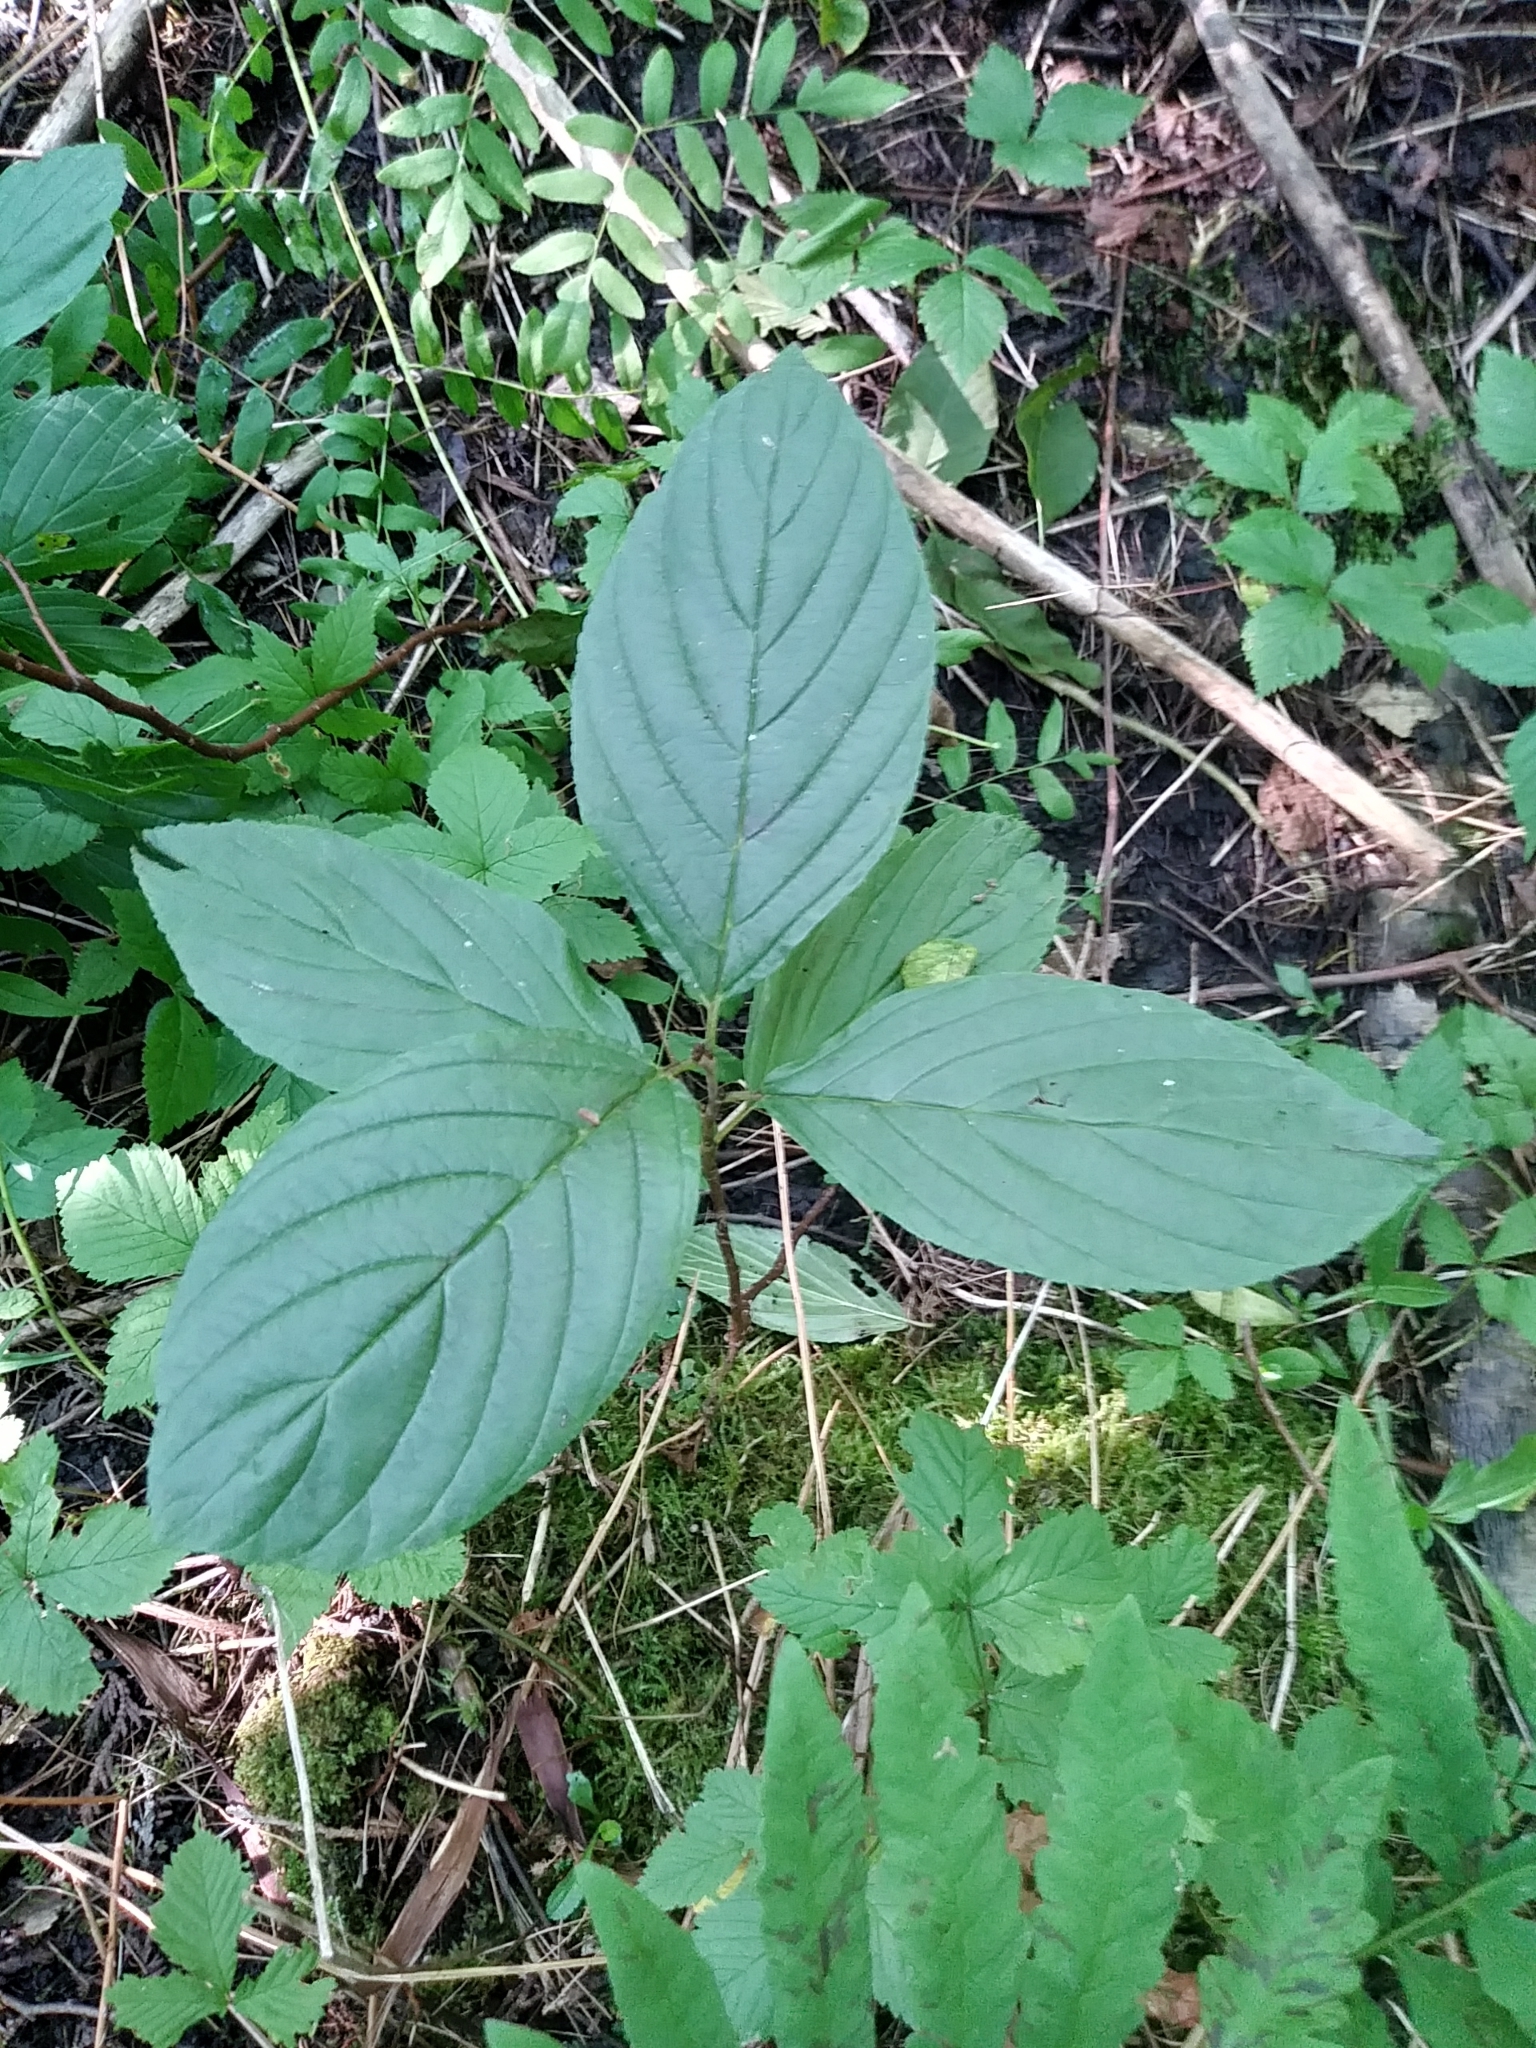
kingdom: Plantae
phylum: Tracheophyta
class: Magnoliopsida
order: Rosales
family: Rhamnaceae
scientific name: Rhamnaceae
